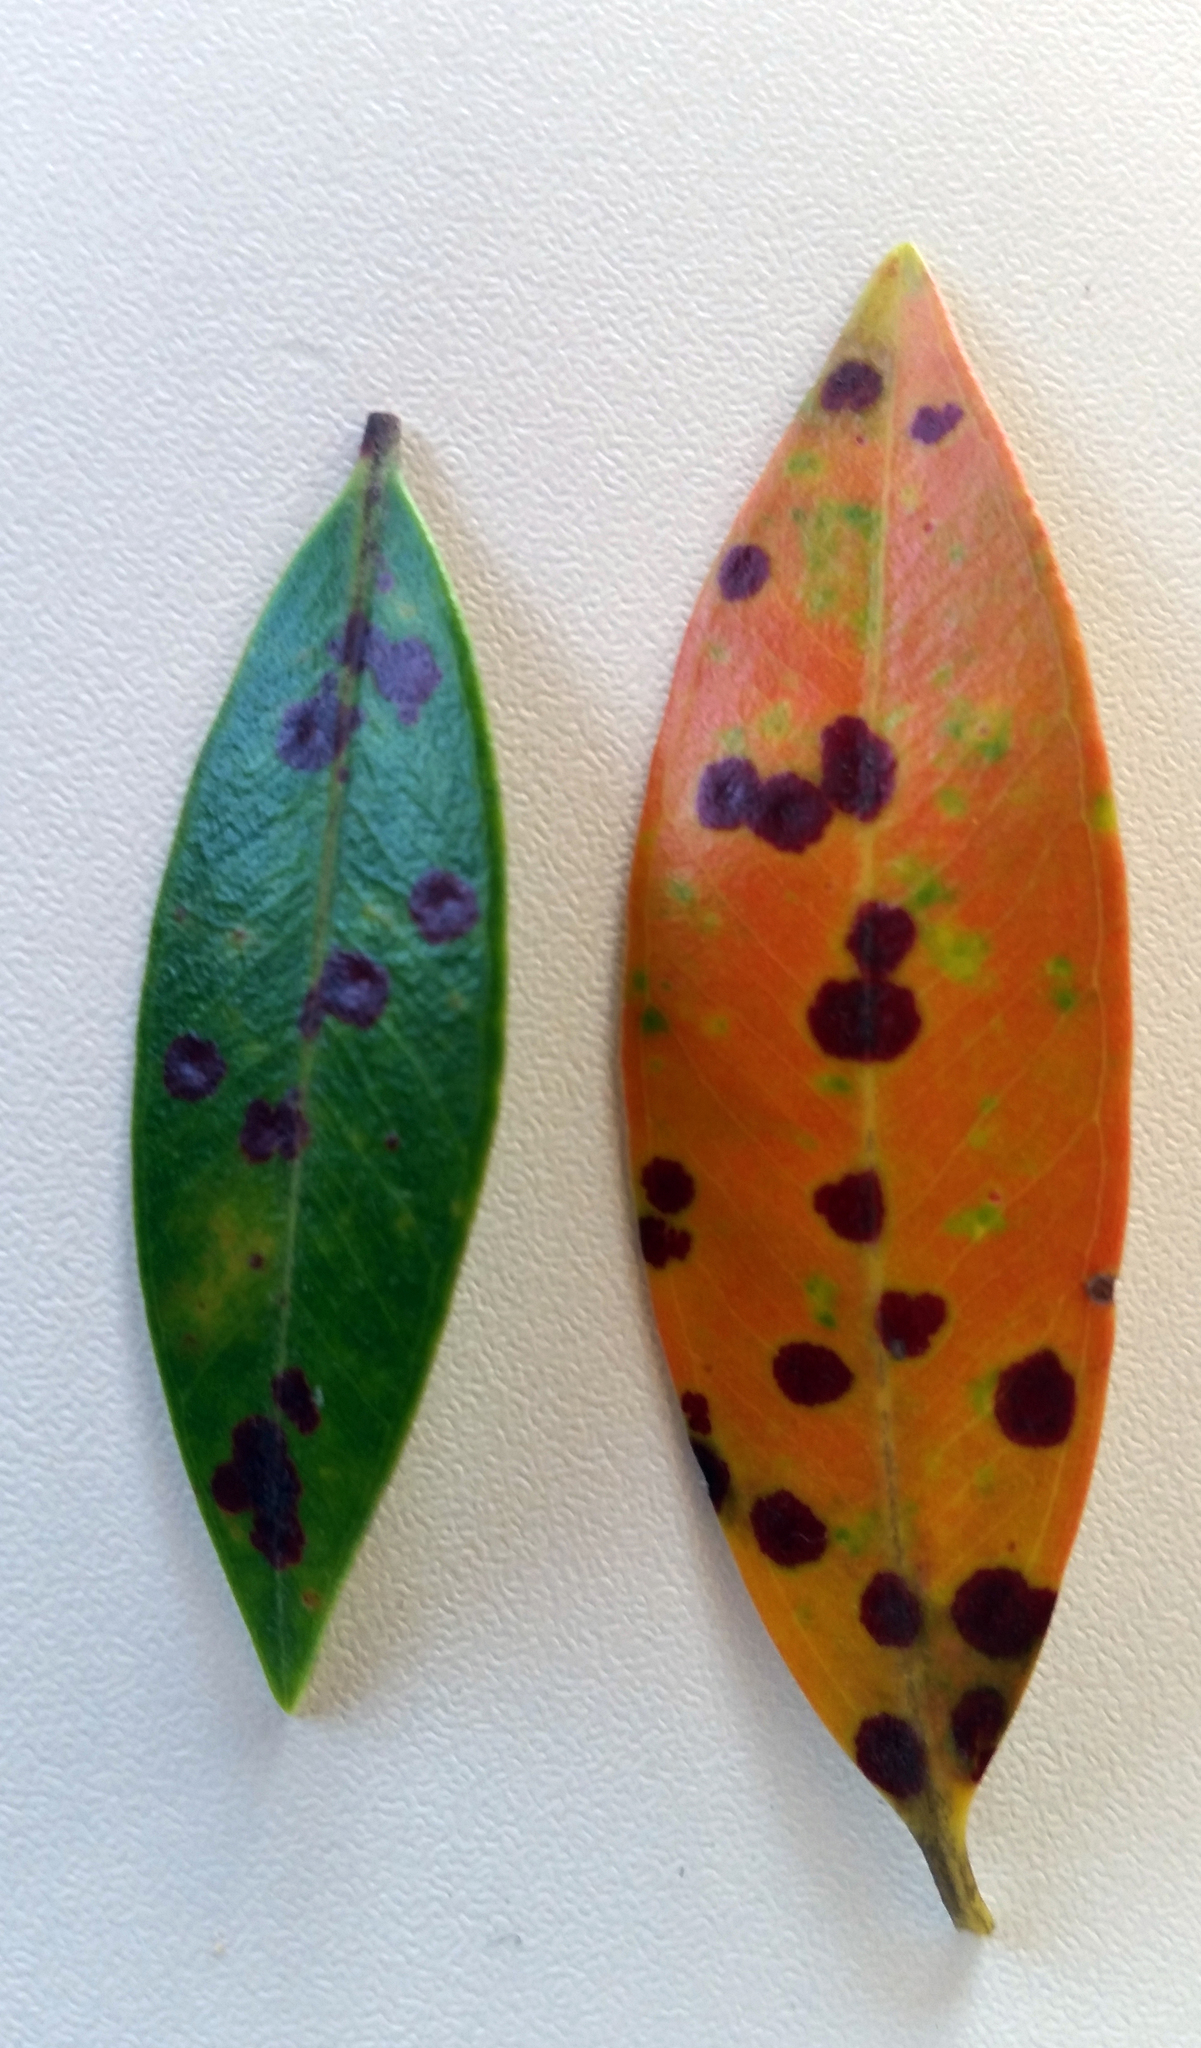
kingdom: Fungi
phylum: Ascomycota
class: Dothideomycetes
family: Thyrinulaceae
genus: Blastacervulus
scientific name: Blastacervulus metrosideri
